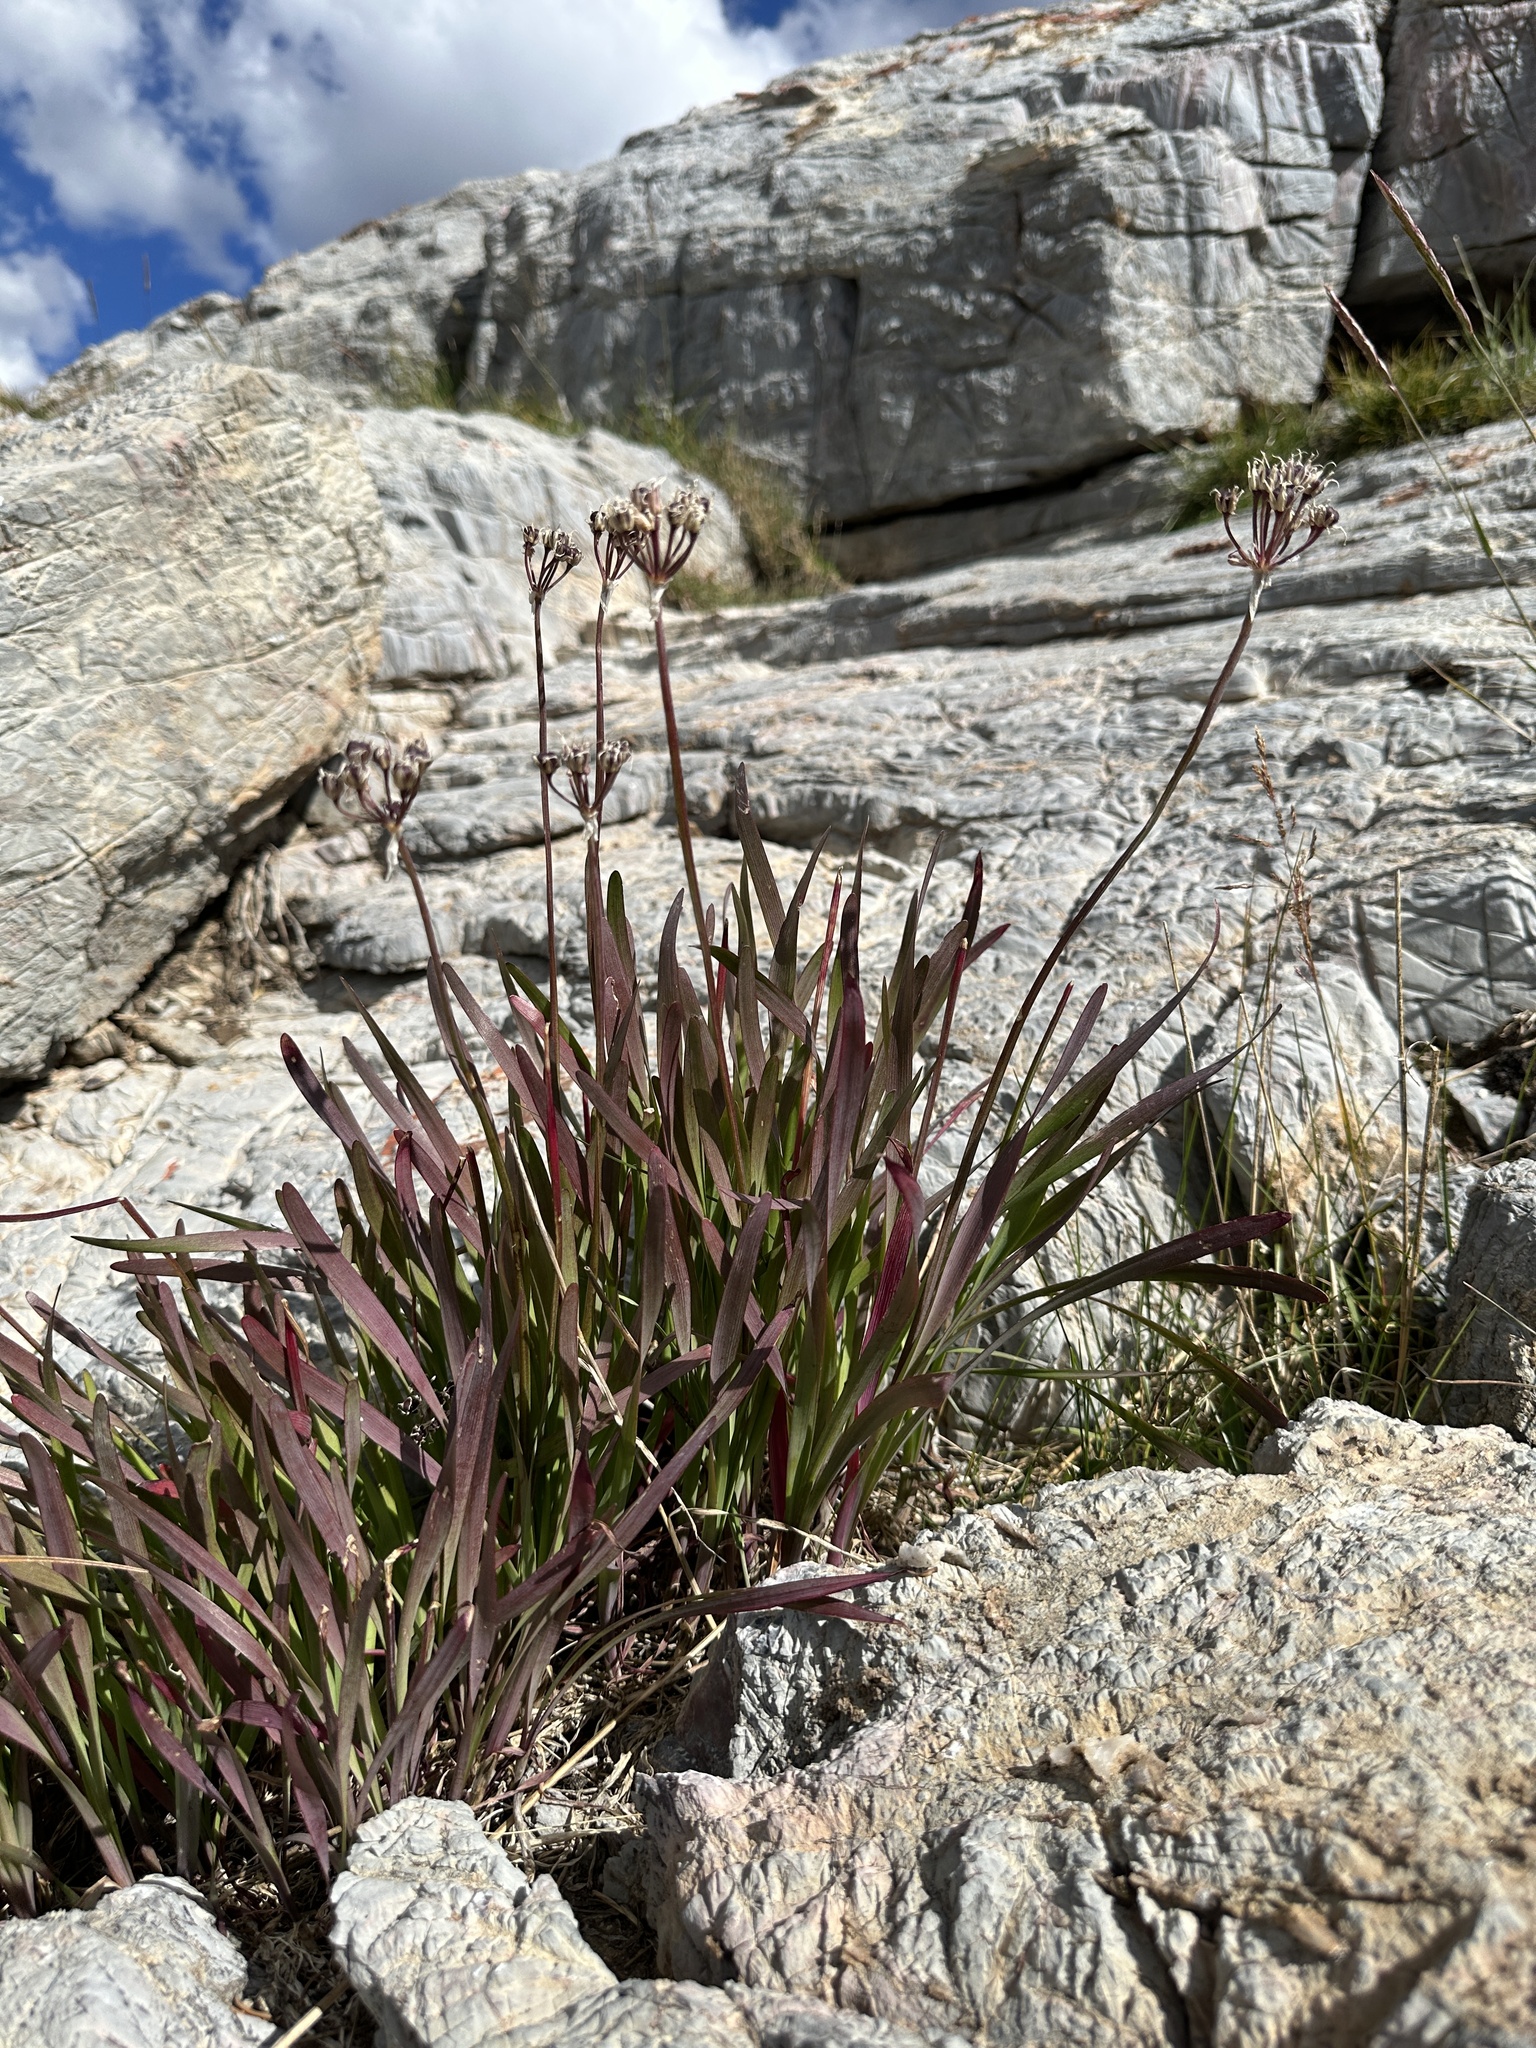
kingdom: Plantae
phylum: Tracheophyta
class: Liliopsida
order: Asparagales
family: Amaryllidaceae
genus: Allium
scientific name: Allium brevistylum
